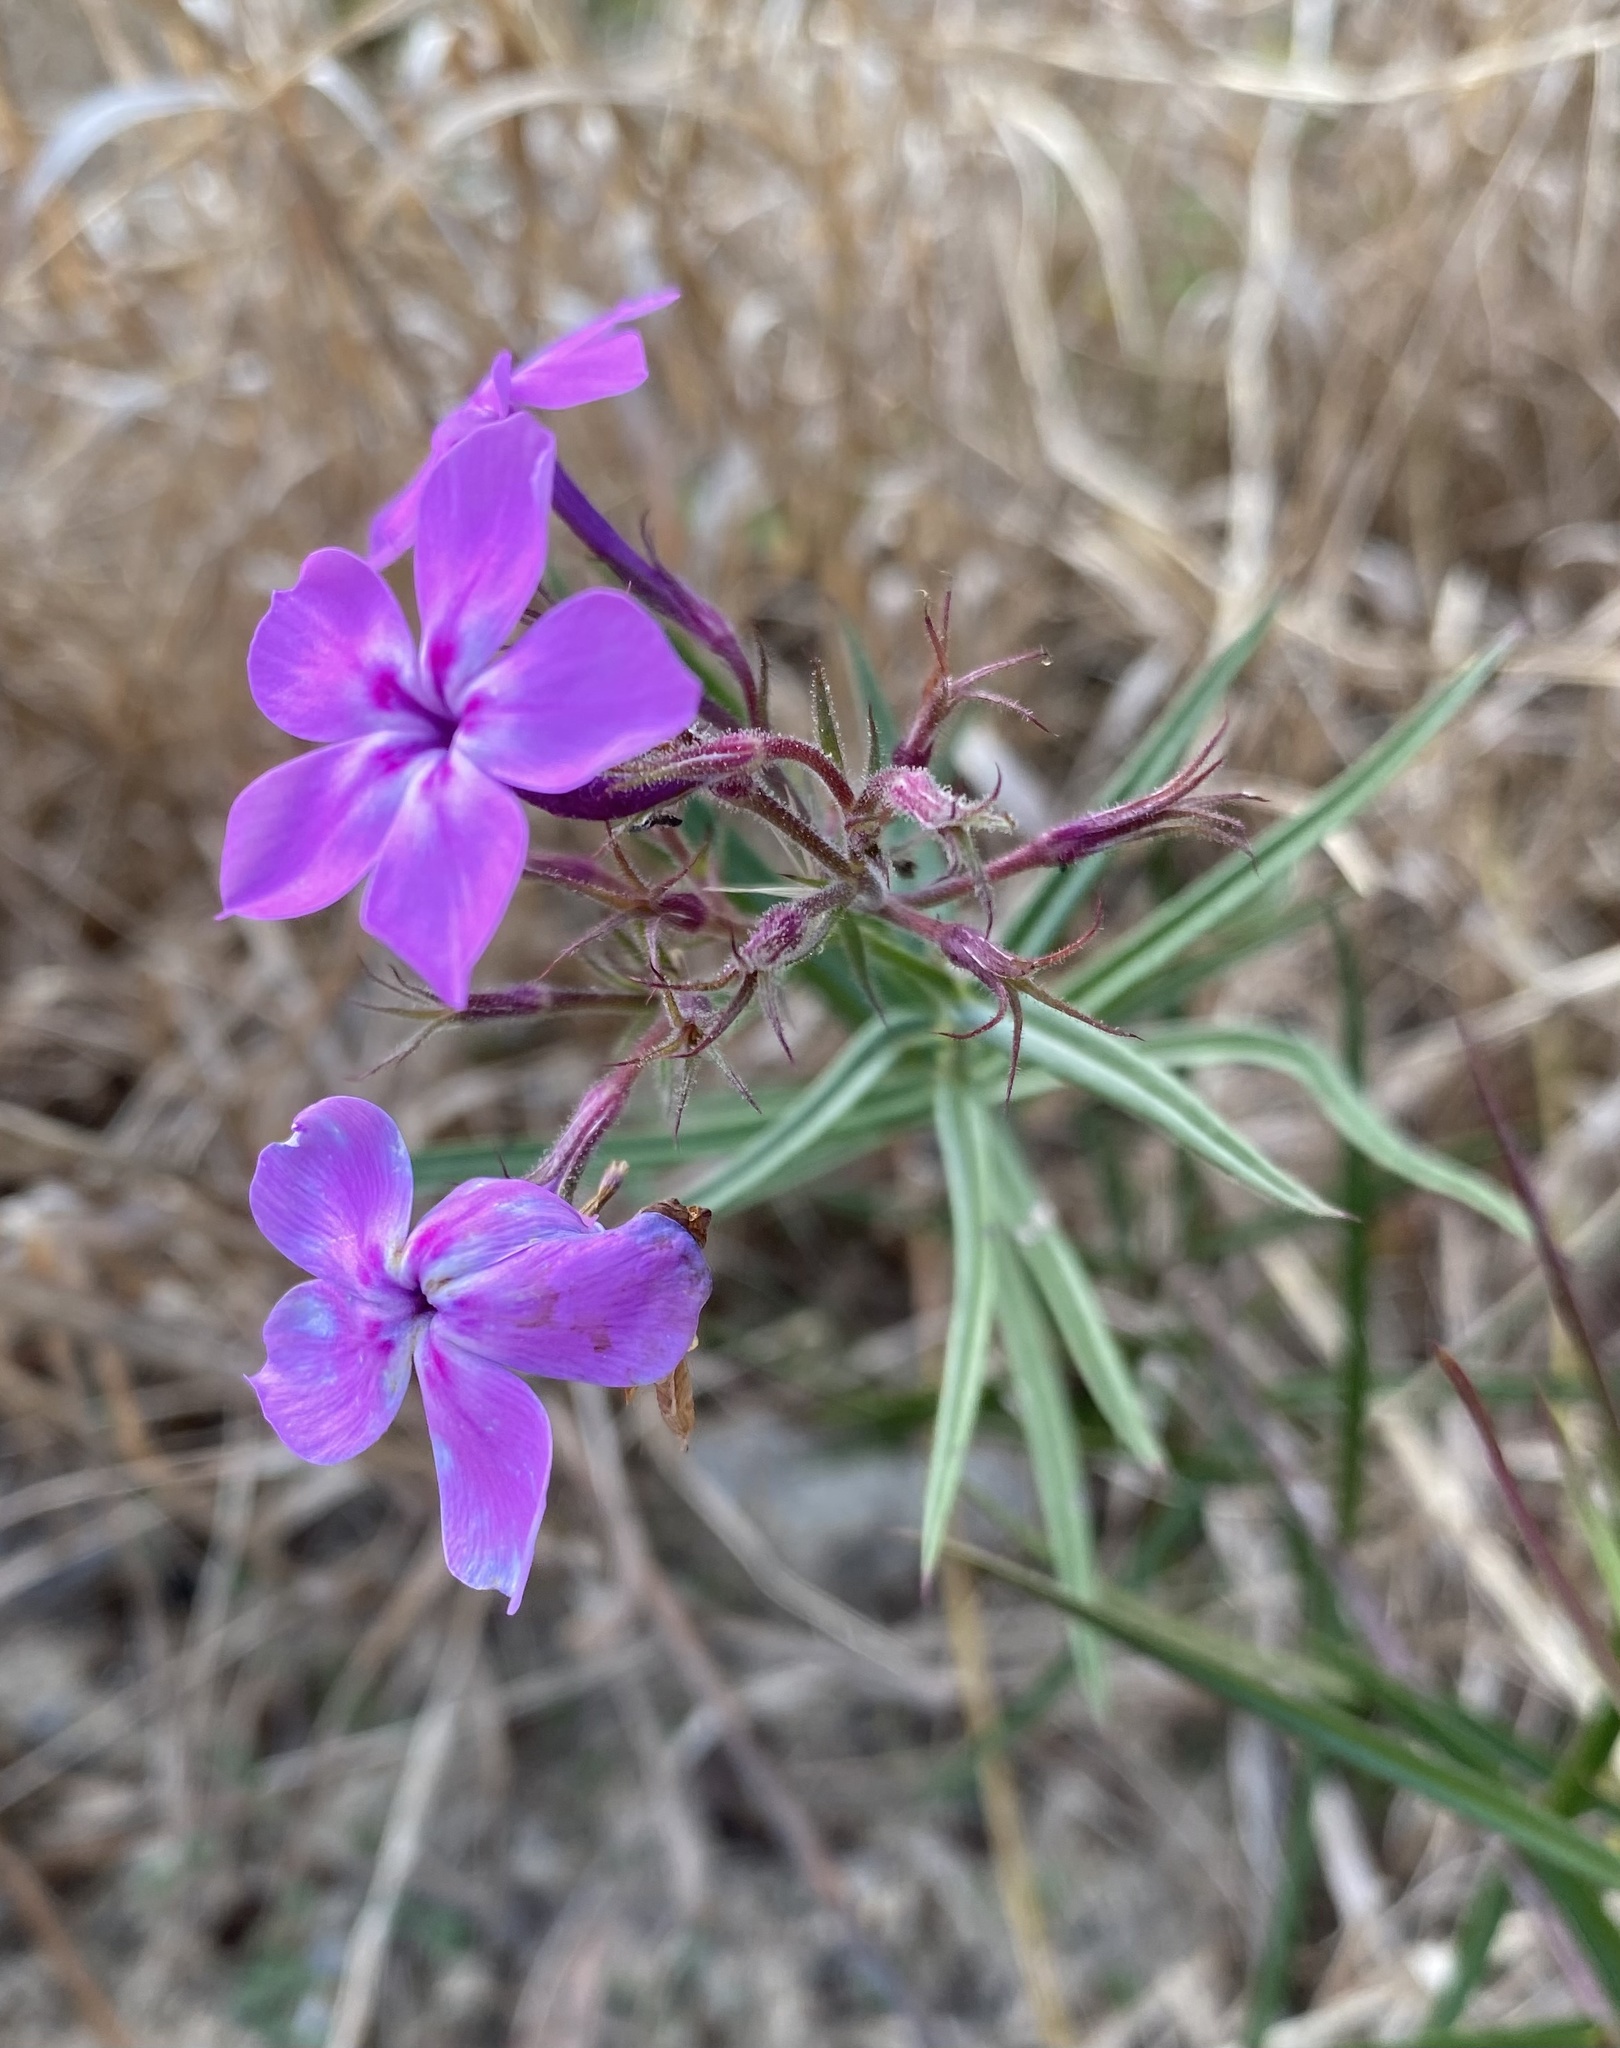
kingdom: Plantae
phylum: Tracheophyta
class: Magnoliopsida
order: Ericales
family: Polemoniaceae
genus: Phlox
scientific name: Phlox pilosa
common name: Prairie phlox
